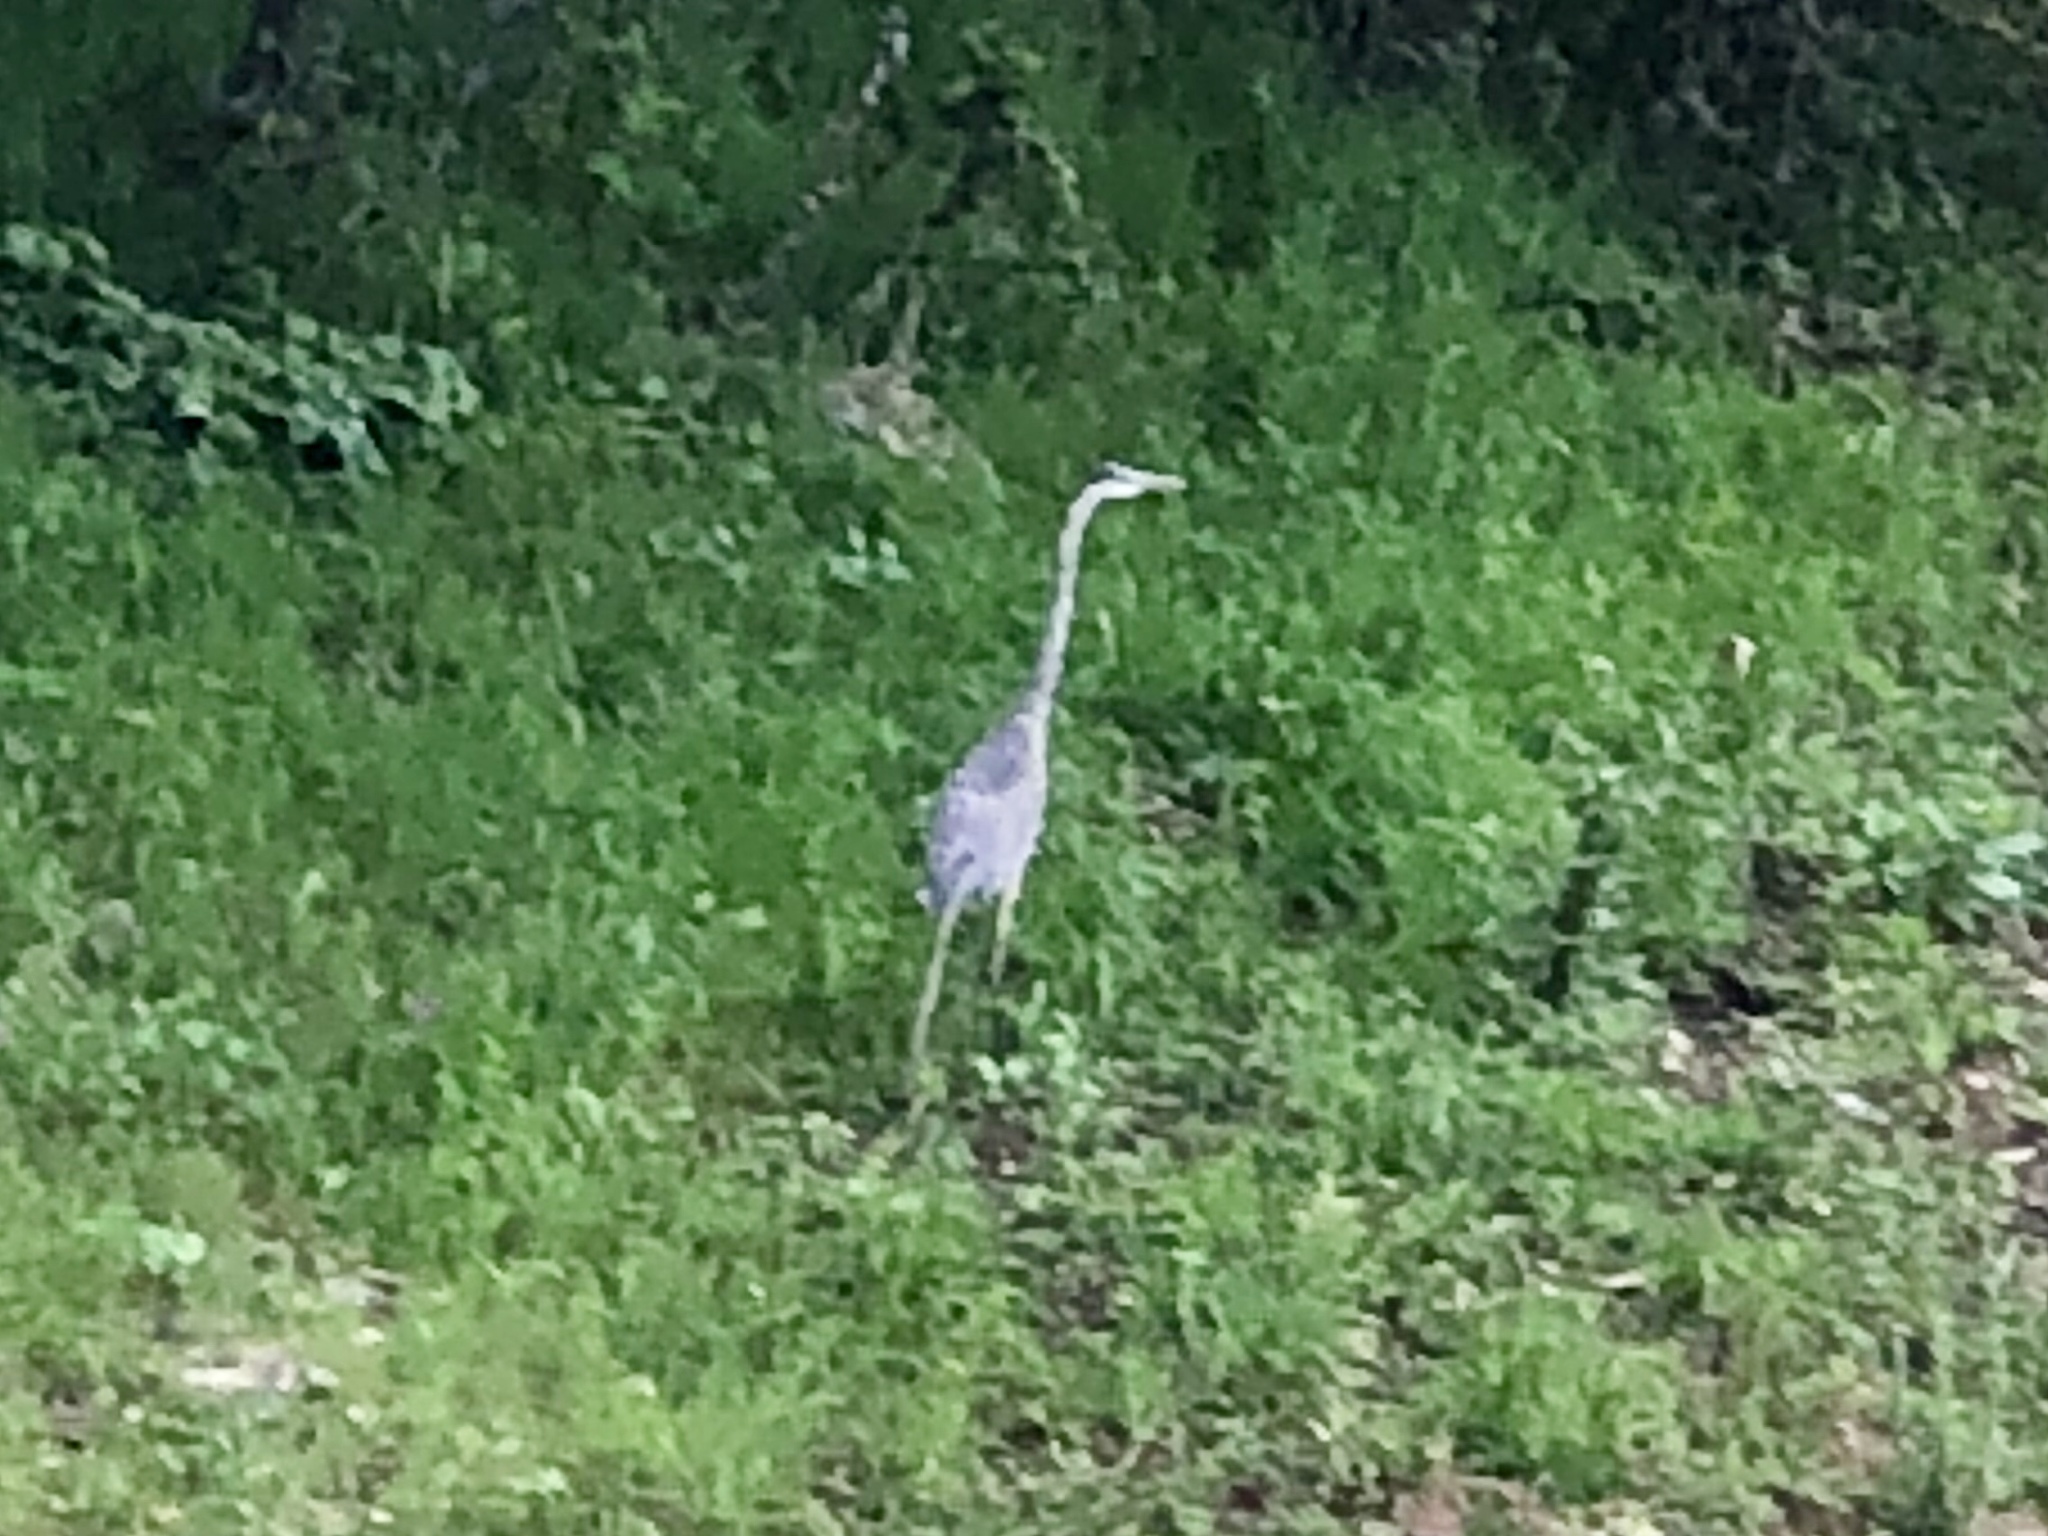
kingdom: Animalia
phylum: Chordata
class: Aves
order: Pelecaniformes
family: Ardeidae
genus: Ardea
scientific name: Ardea herodias
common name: Great blue heron
